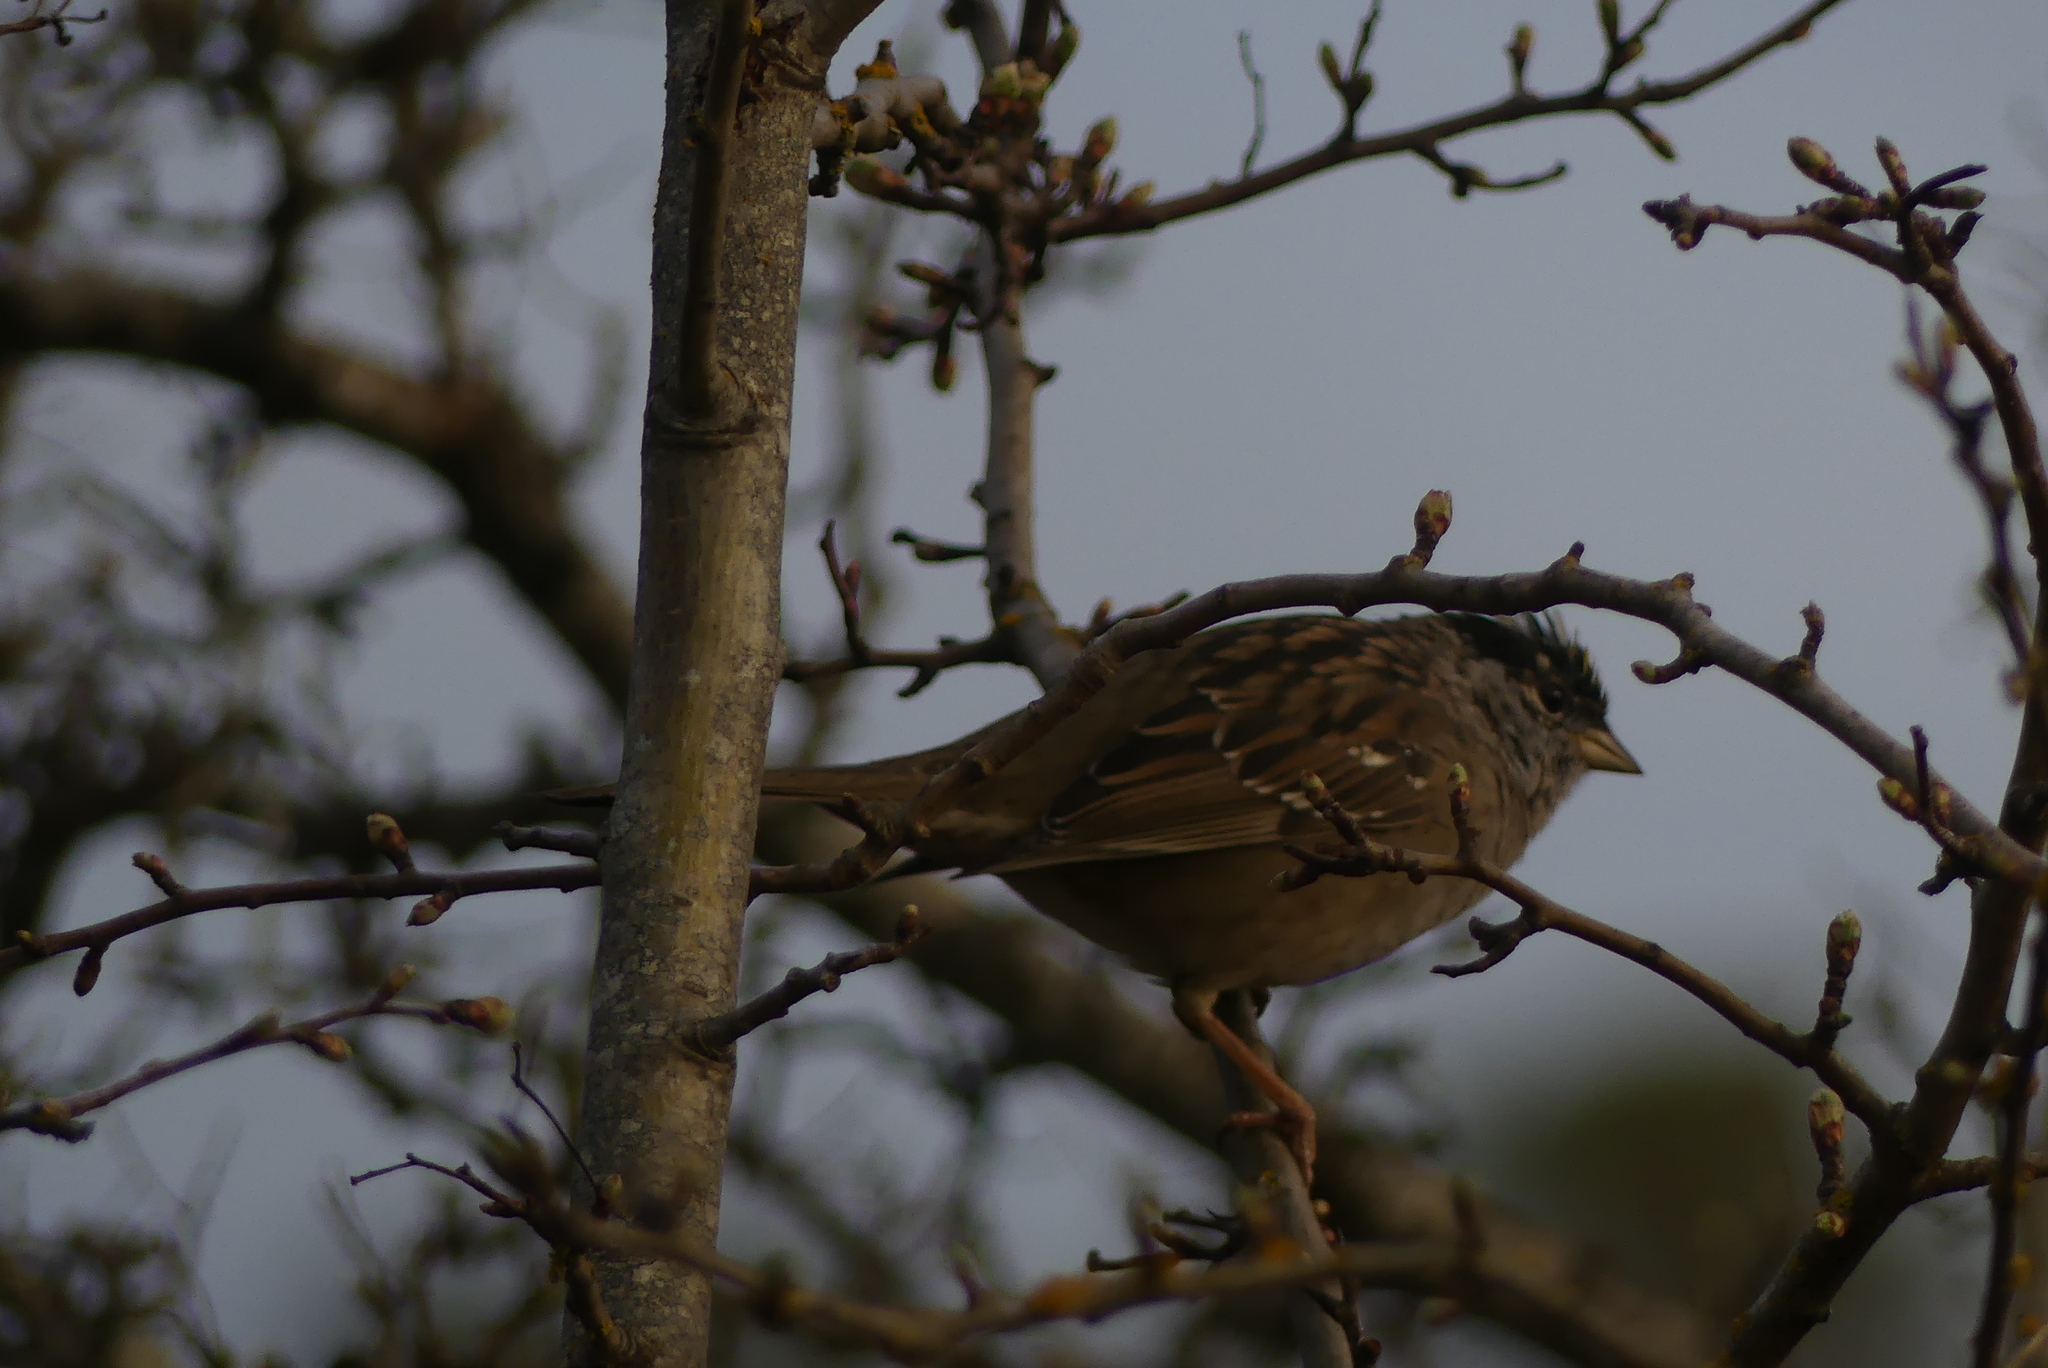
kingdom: Animalia
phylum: Chordata
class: Aves
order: Passeriformes
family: Passerellidae
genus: Zonotrichia
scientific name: Zonotrichia atricapilla
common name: Golden-crowned sparrow
